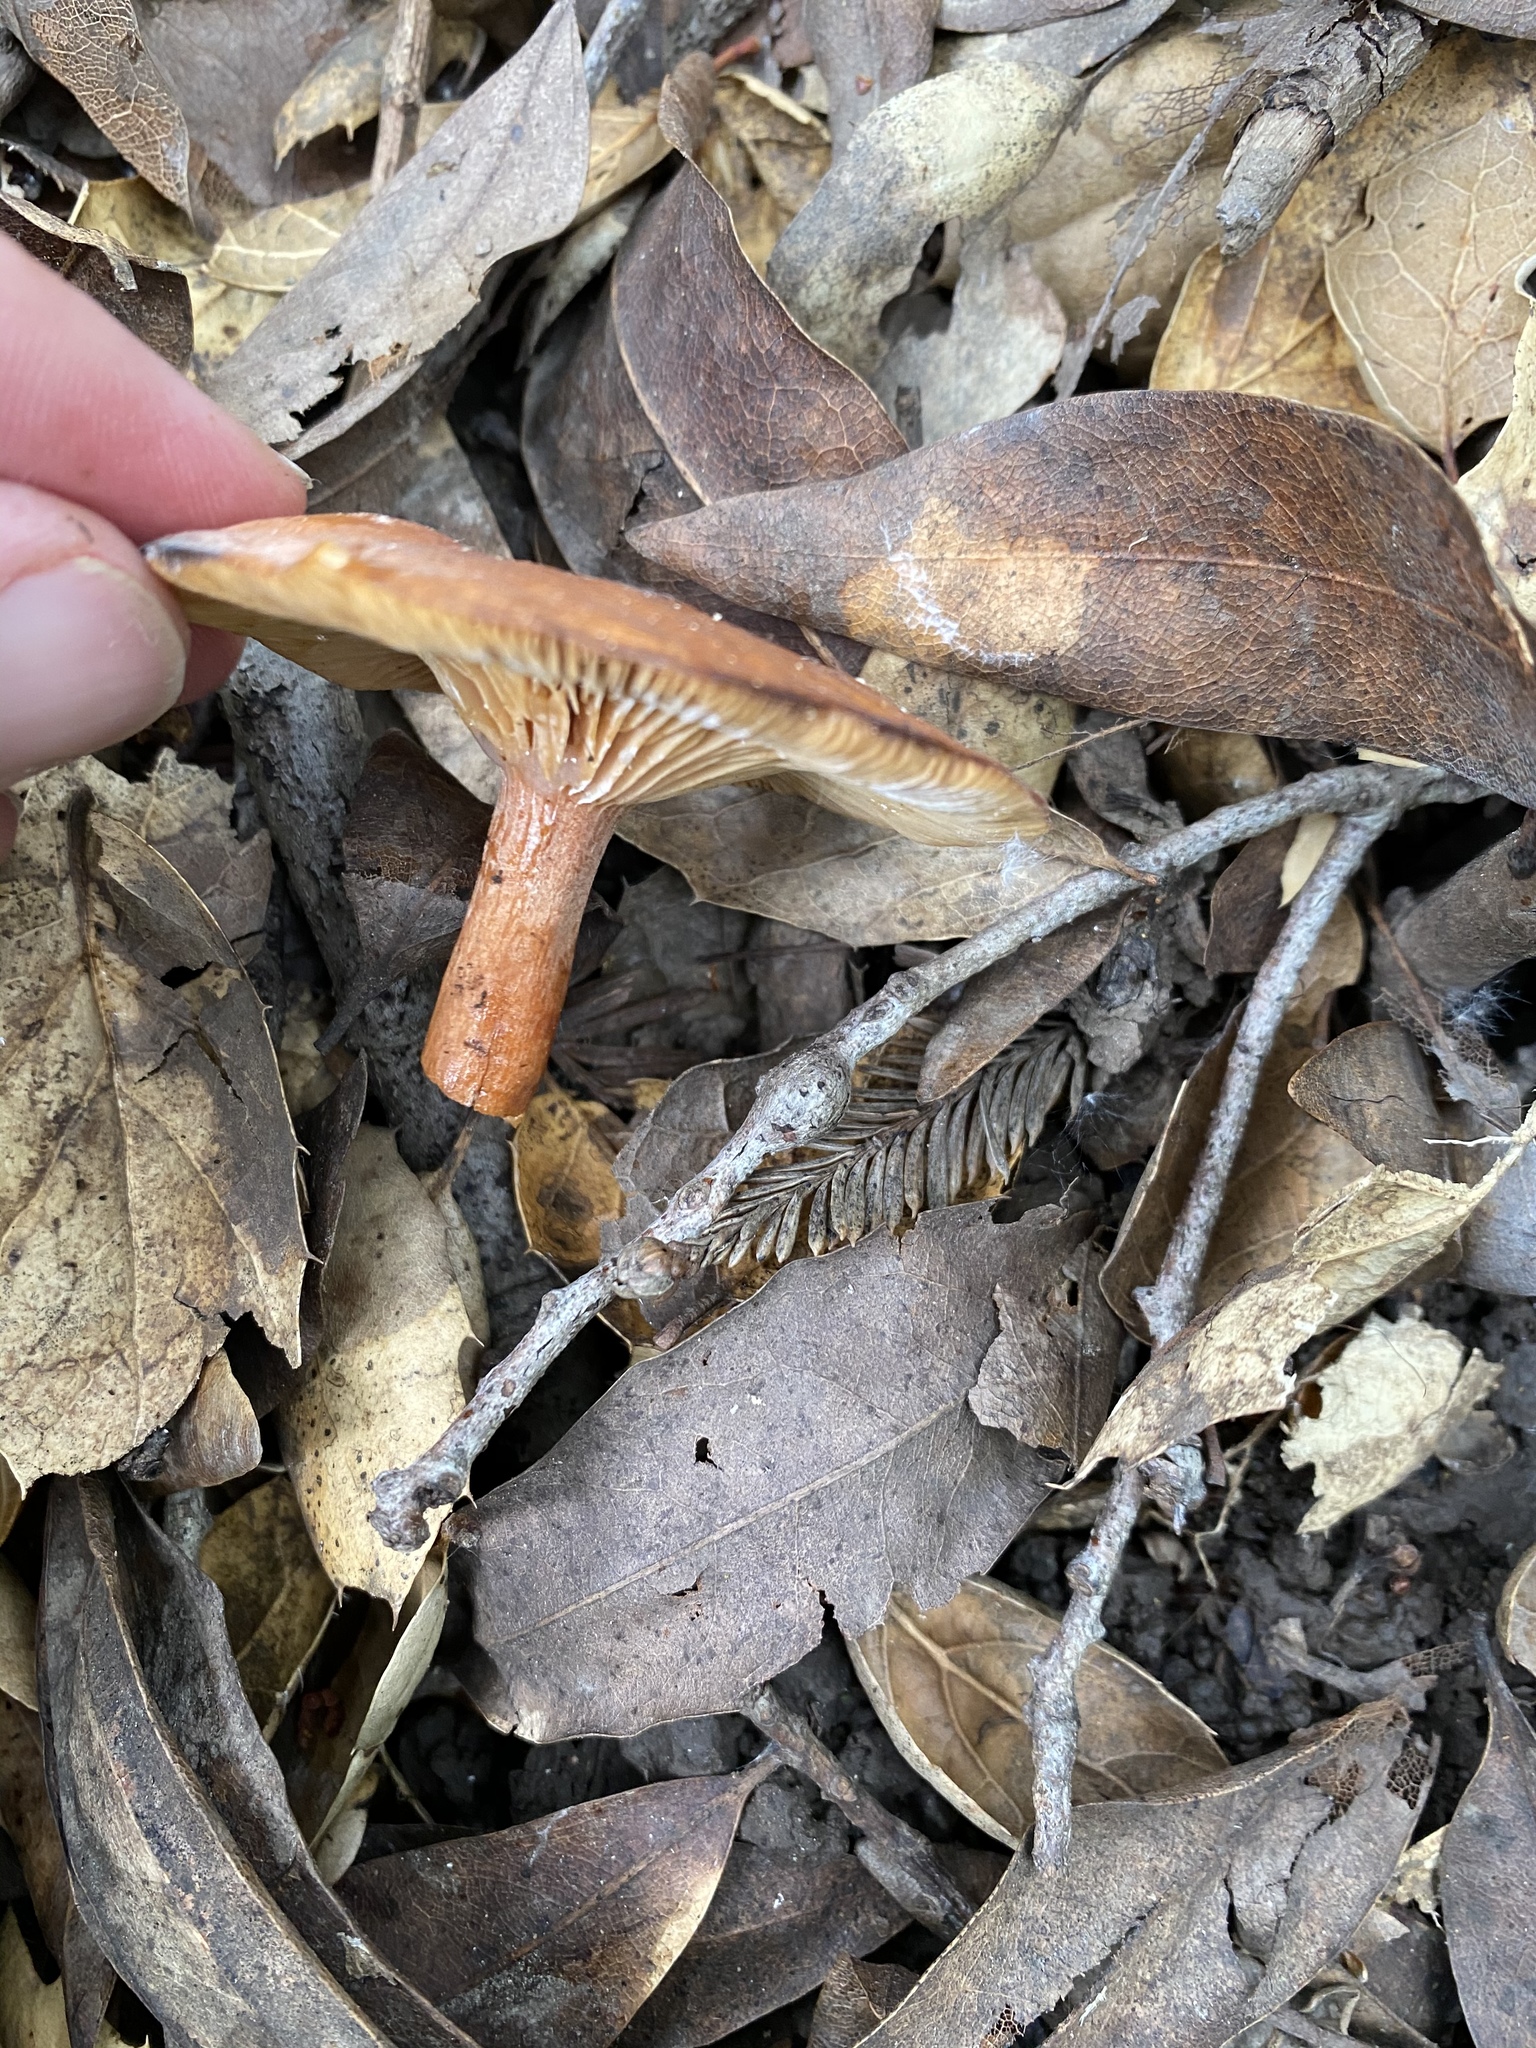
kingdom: Fungi
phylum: Basidiomycota
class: Agaricomycetes
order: Russulales
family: Russulaceae
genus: Lactarius
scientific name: Lactarius rubidus
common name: Candy cap
